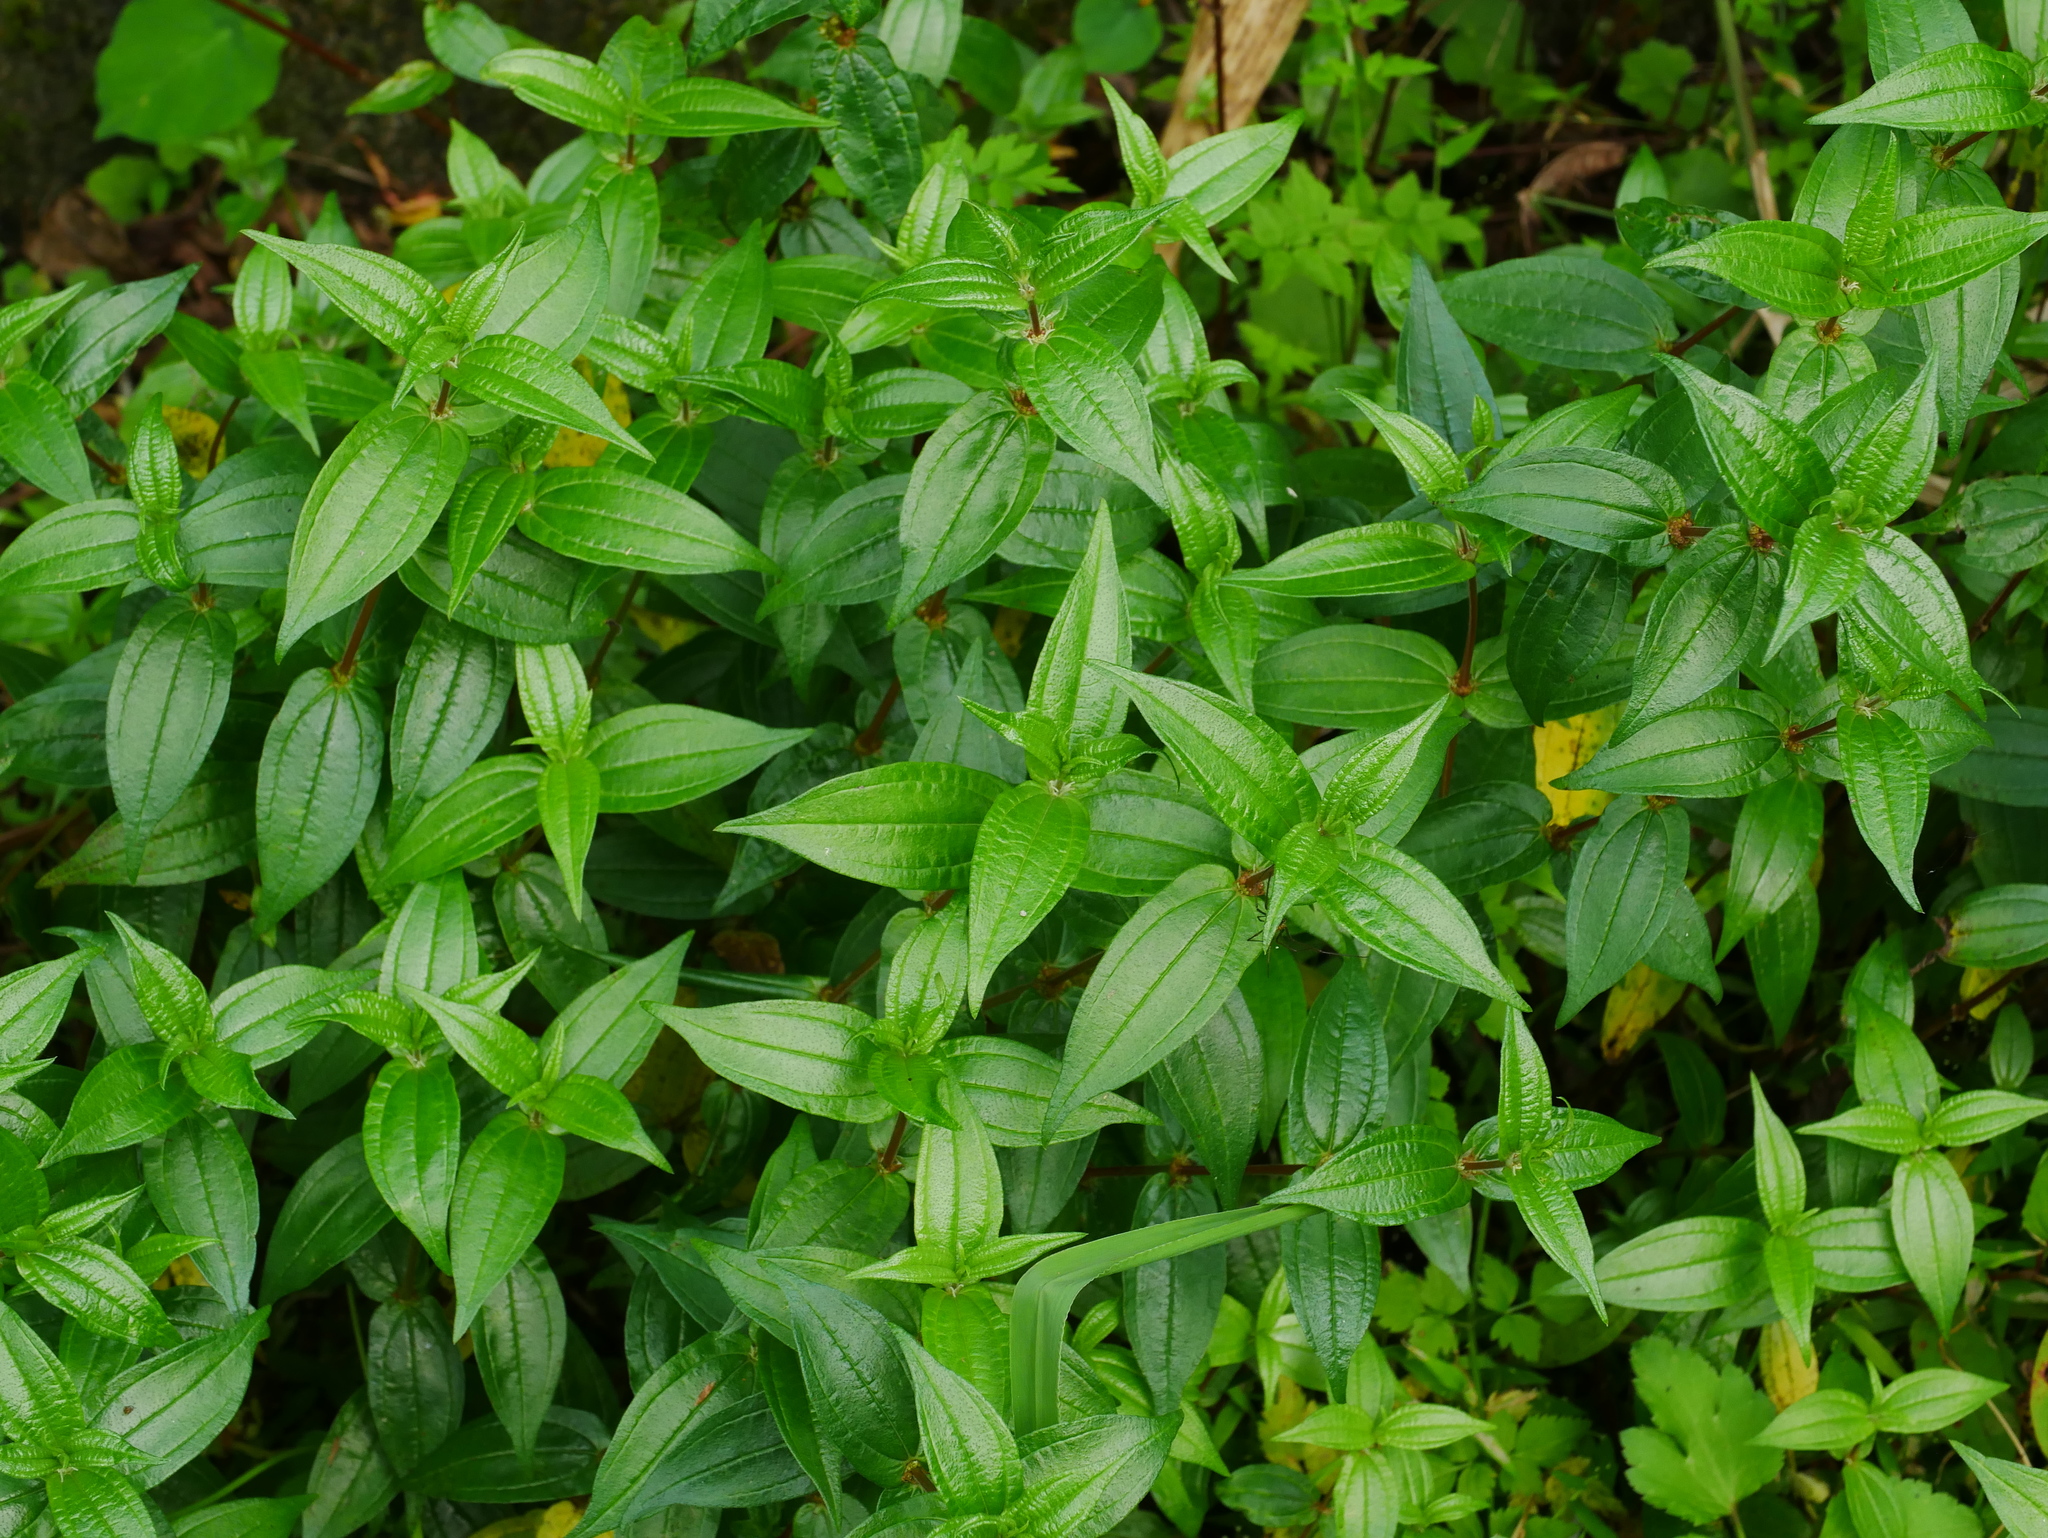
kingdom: Plantae
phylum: Tracheophyta
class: Magnoliopsida
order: Rosales
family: Urticaceae
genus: Gonostegia
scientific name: Gonostegia triandra
